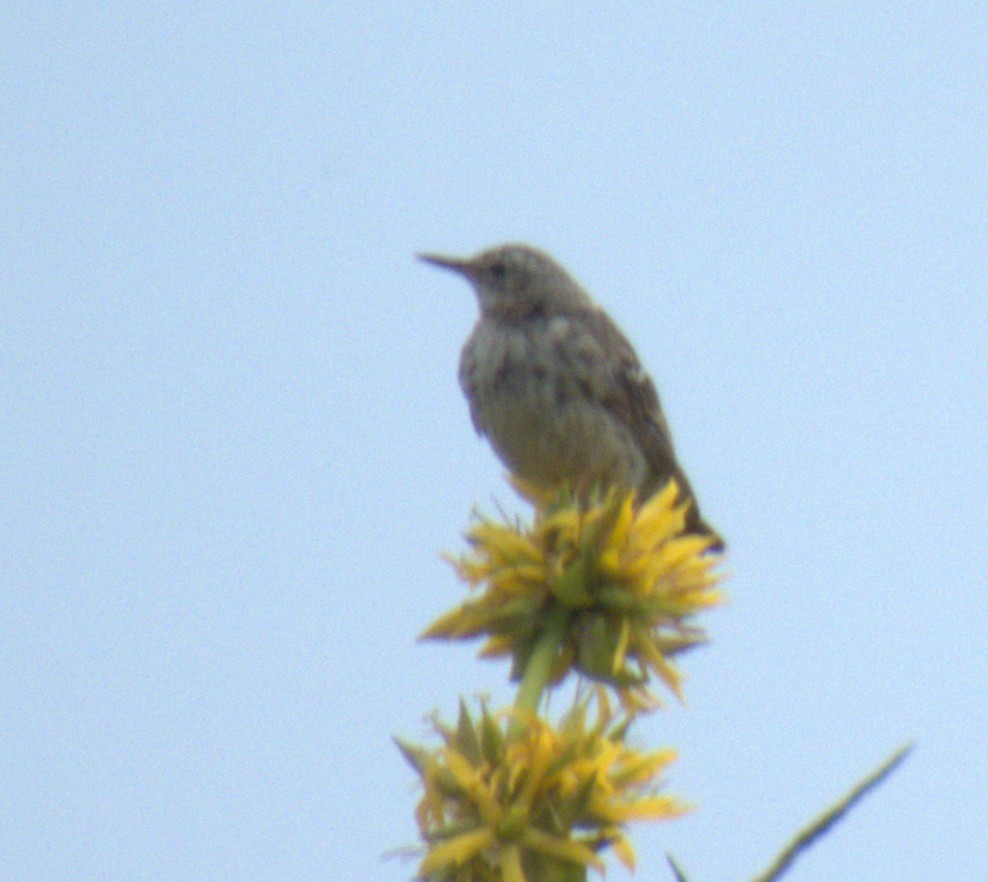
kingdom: Animalia
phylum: Chordata
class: Aves
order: Passeriformes
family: Motacillidae
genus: Anthus
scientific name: Anthus spinoletta
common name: Water pipit
